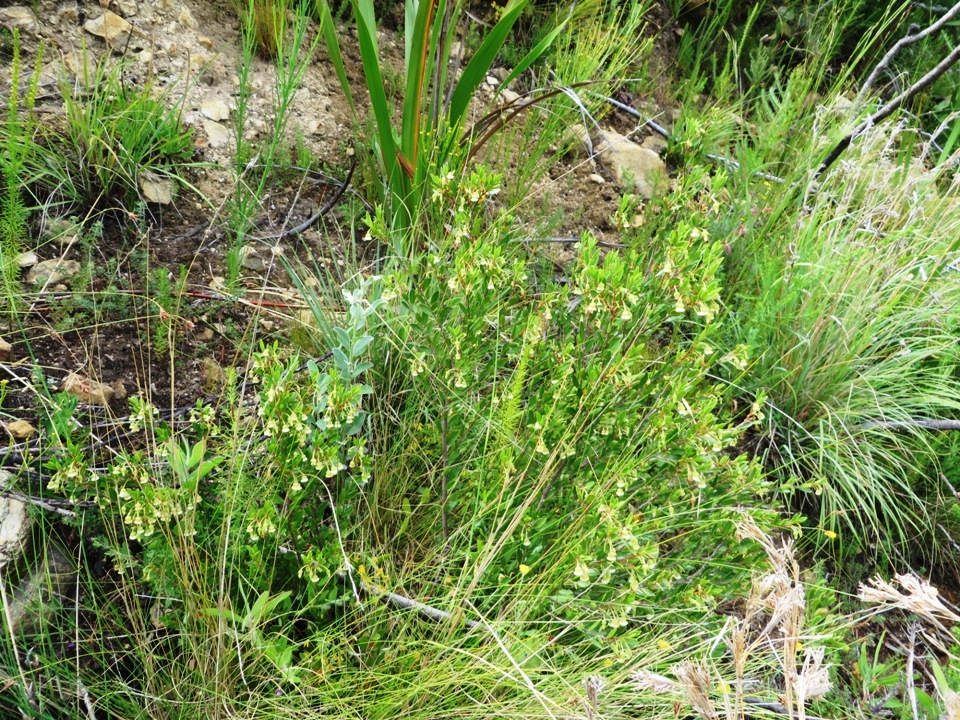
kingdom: Plantae
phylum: Tracheophyta
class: Magnoliopsida
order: Ericales
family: Ebenaceae
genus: Diospyros
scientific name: Diospyros glabra
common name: Fynbos star apple
